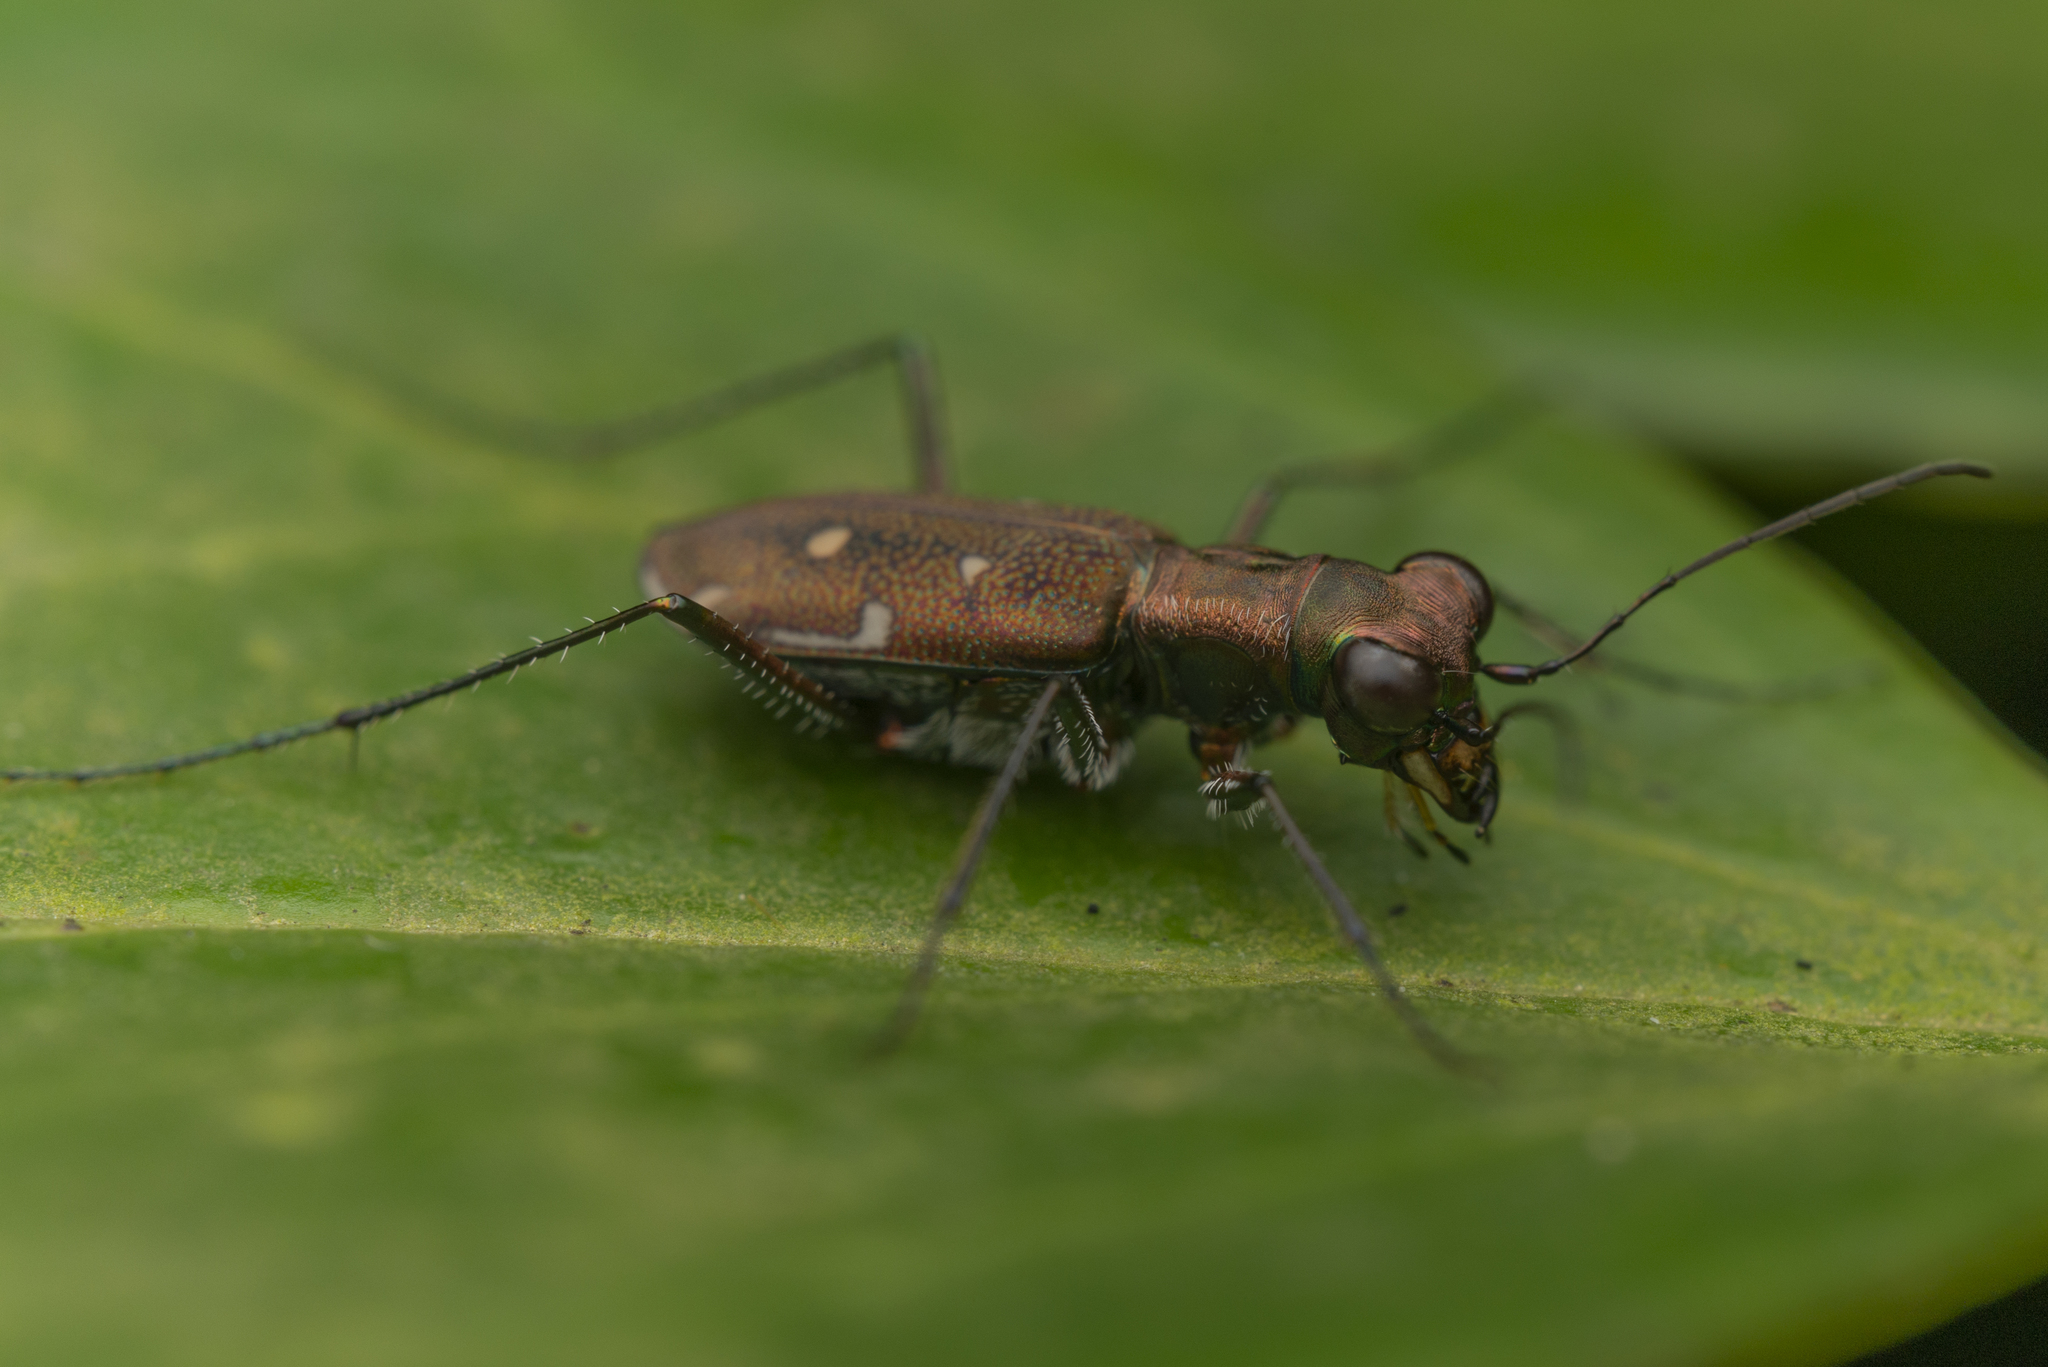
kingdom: Animalia
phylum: Arthropoda
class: Insecta
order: Coleoptera
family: Carabidae
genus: Cylindera
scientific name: Cylindera kaleea
